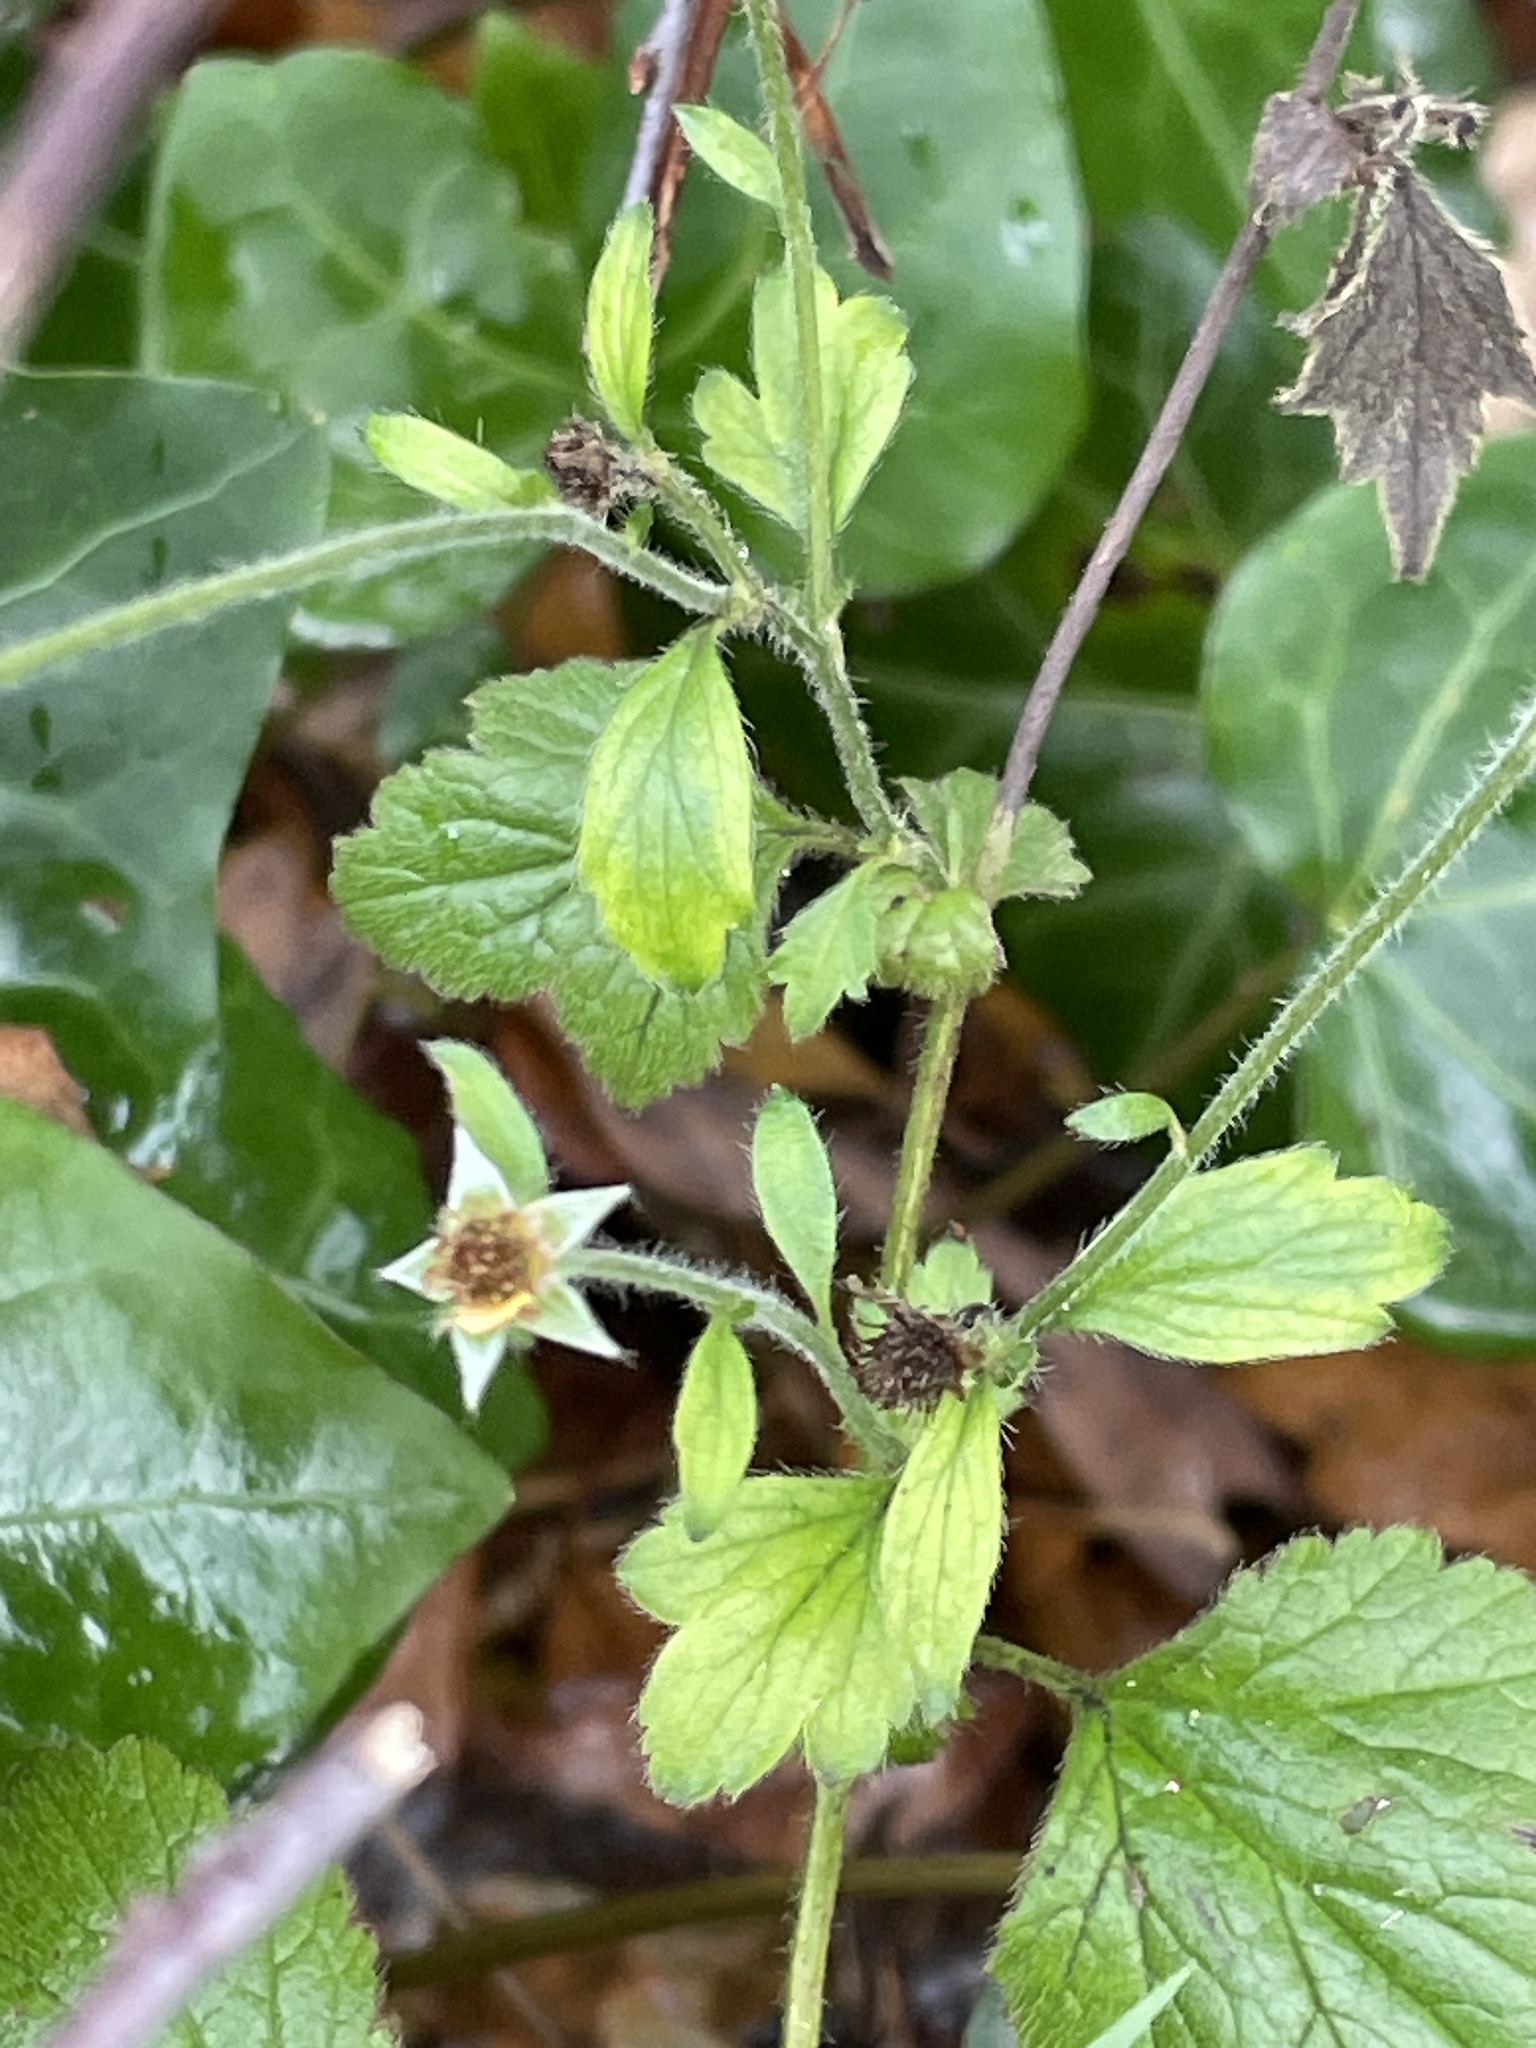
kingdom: Plantae
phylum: Tracheophyta
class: Magnoliopsida
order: Rosales
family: Rosaceae
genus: Geum
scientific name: Geum urbanum
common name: Wood avens
